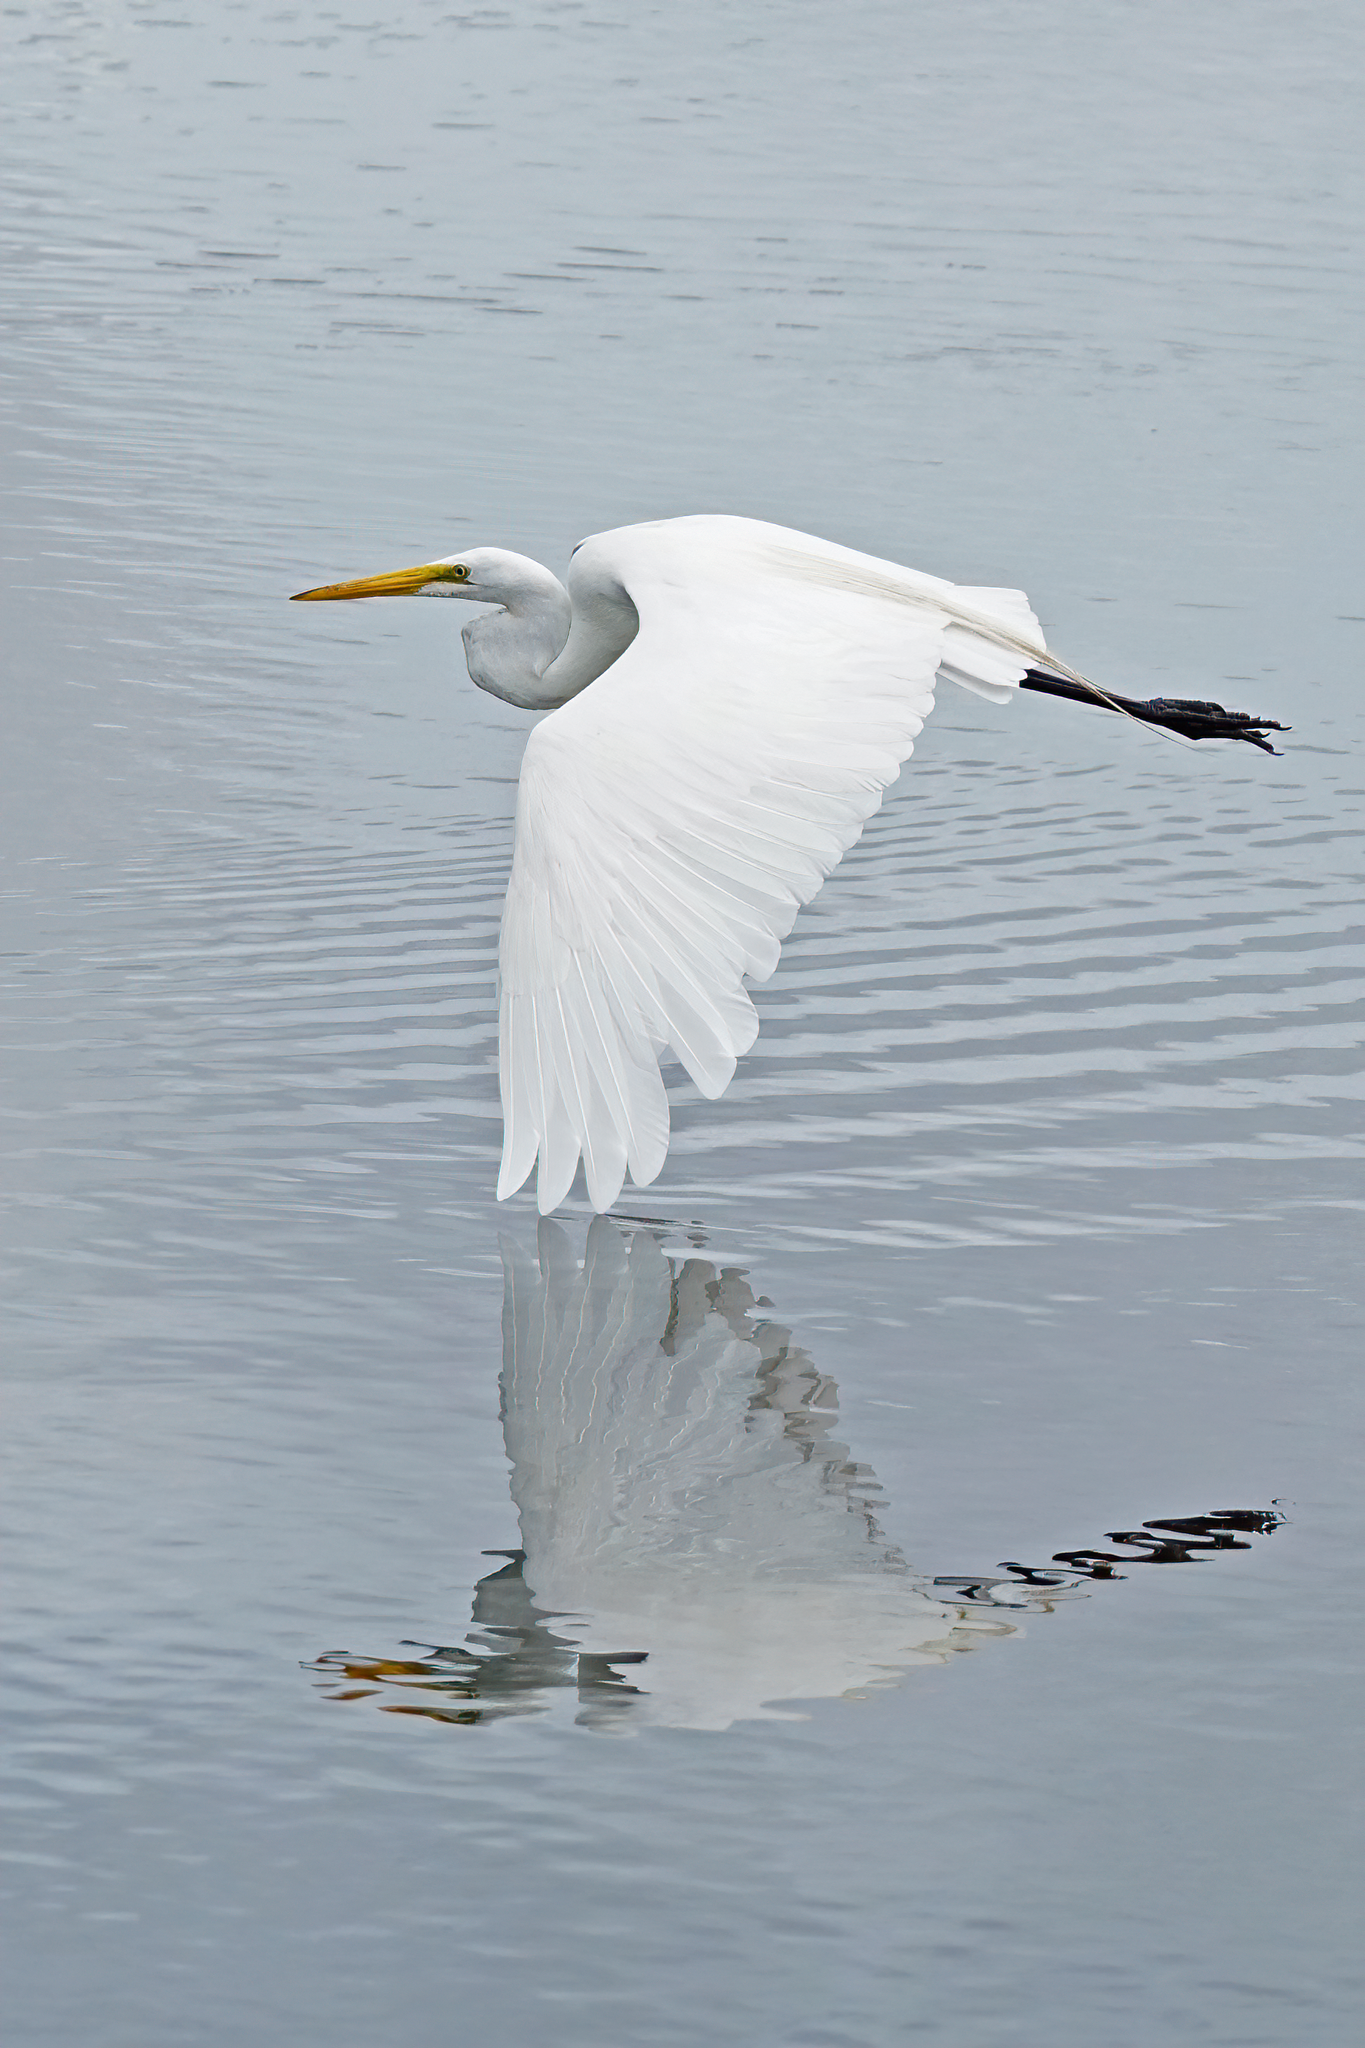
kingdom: Animalia
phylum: Chordata
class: Aves
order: Pelecaniformes
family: Ardeidae
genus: Ardea
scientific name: Ardea alba
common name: Great egret
